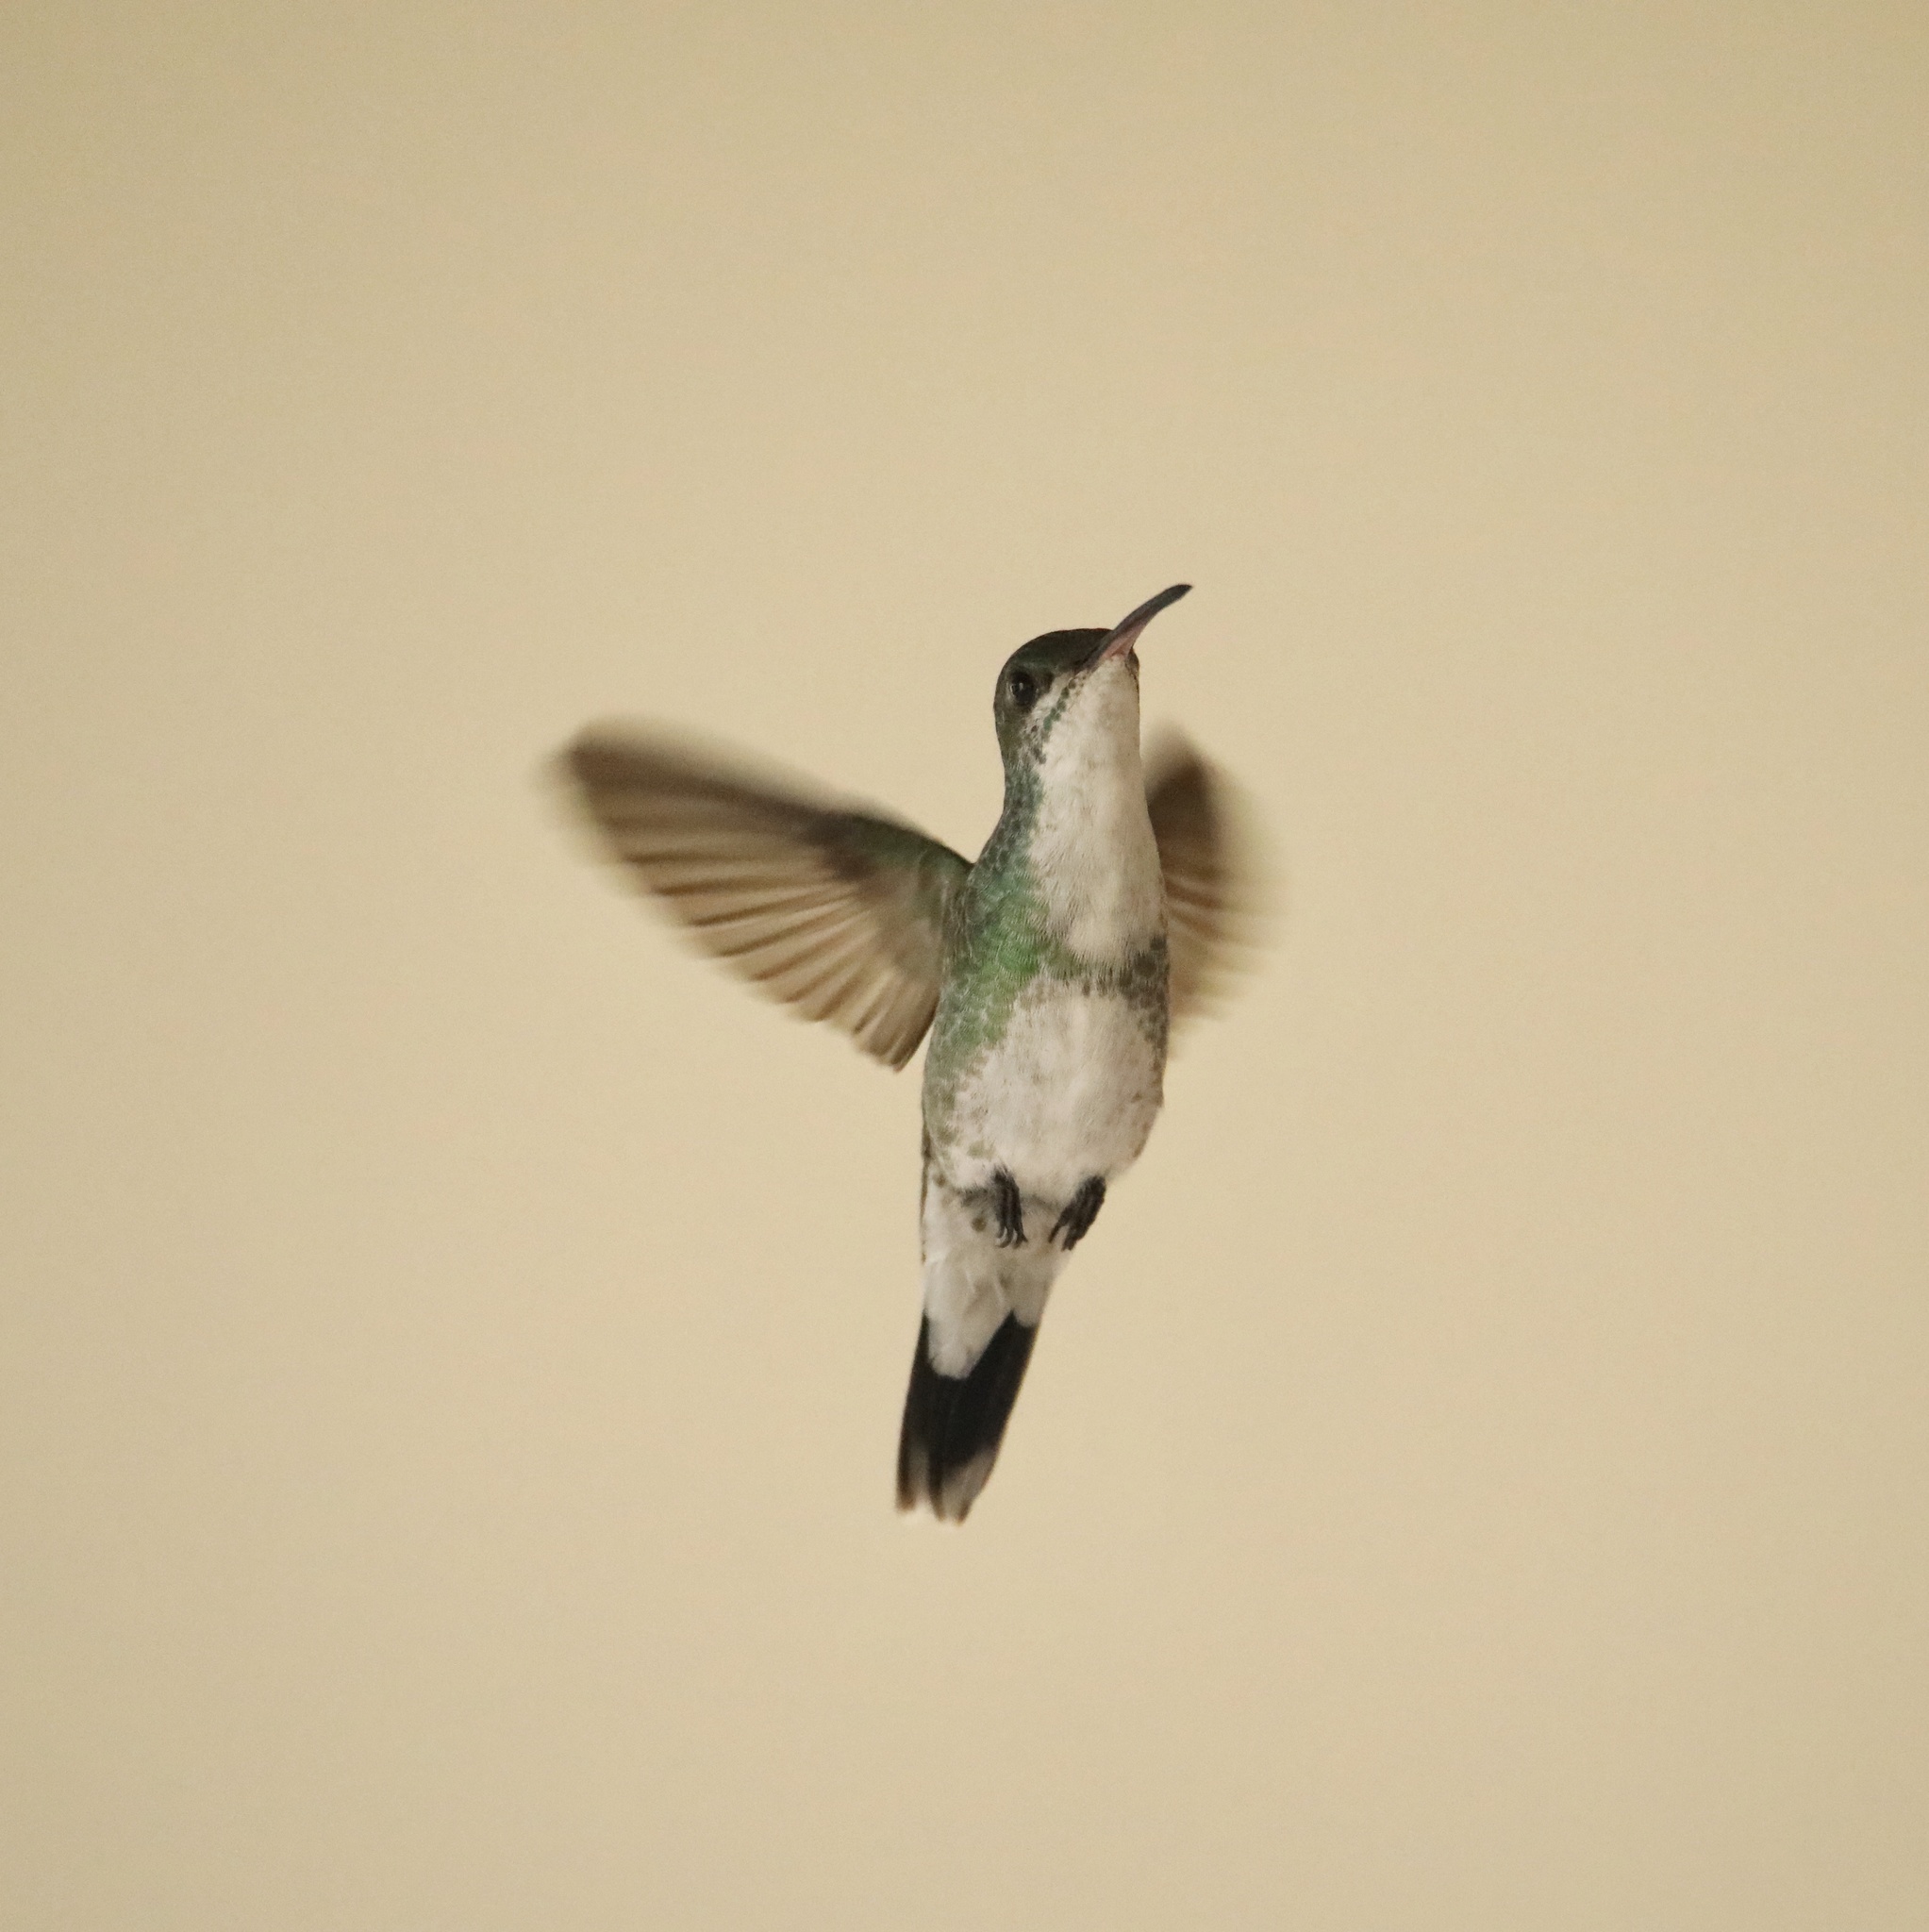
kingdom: Animalia
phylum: Chordata
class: Aves
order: Apodiformes
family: Trochilidae
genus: Chrysuronia
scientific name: Chrysuronia coeruleogularis
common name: Sapphire-throated hummingbird
